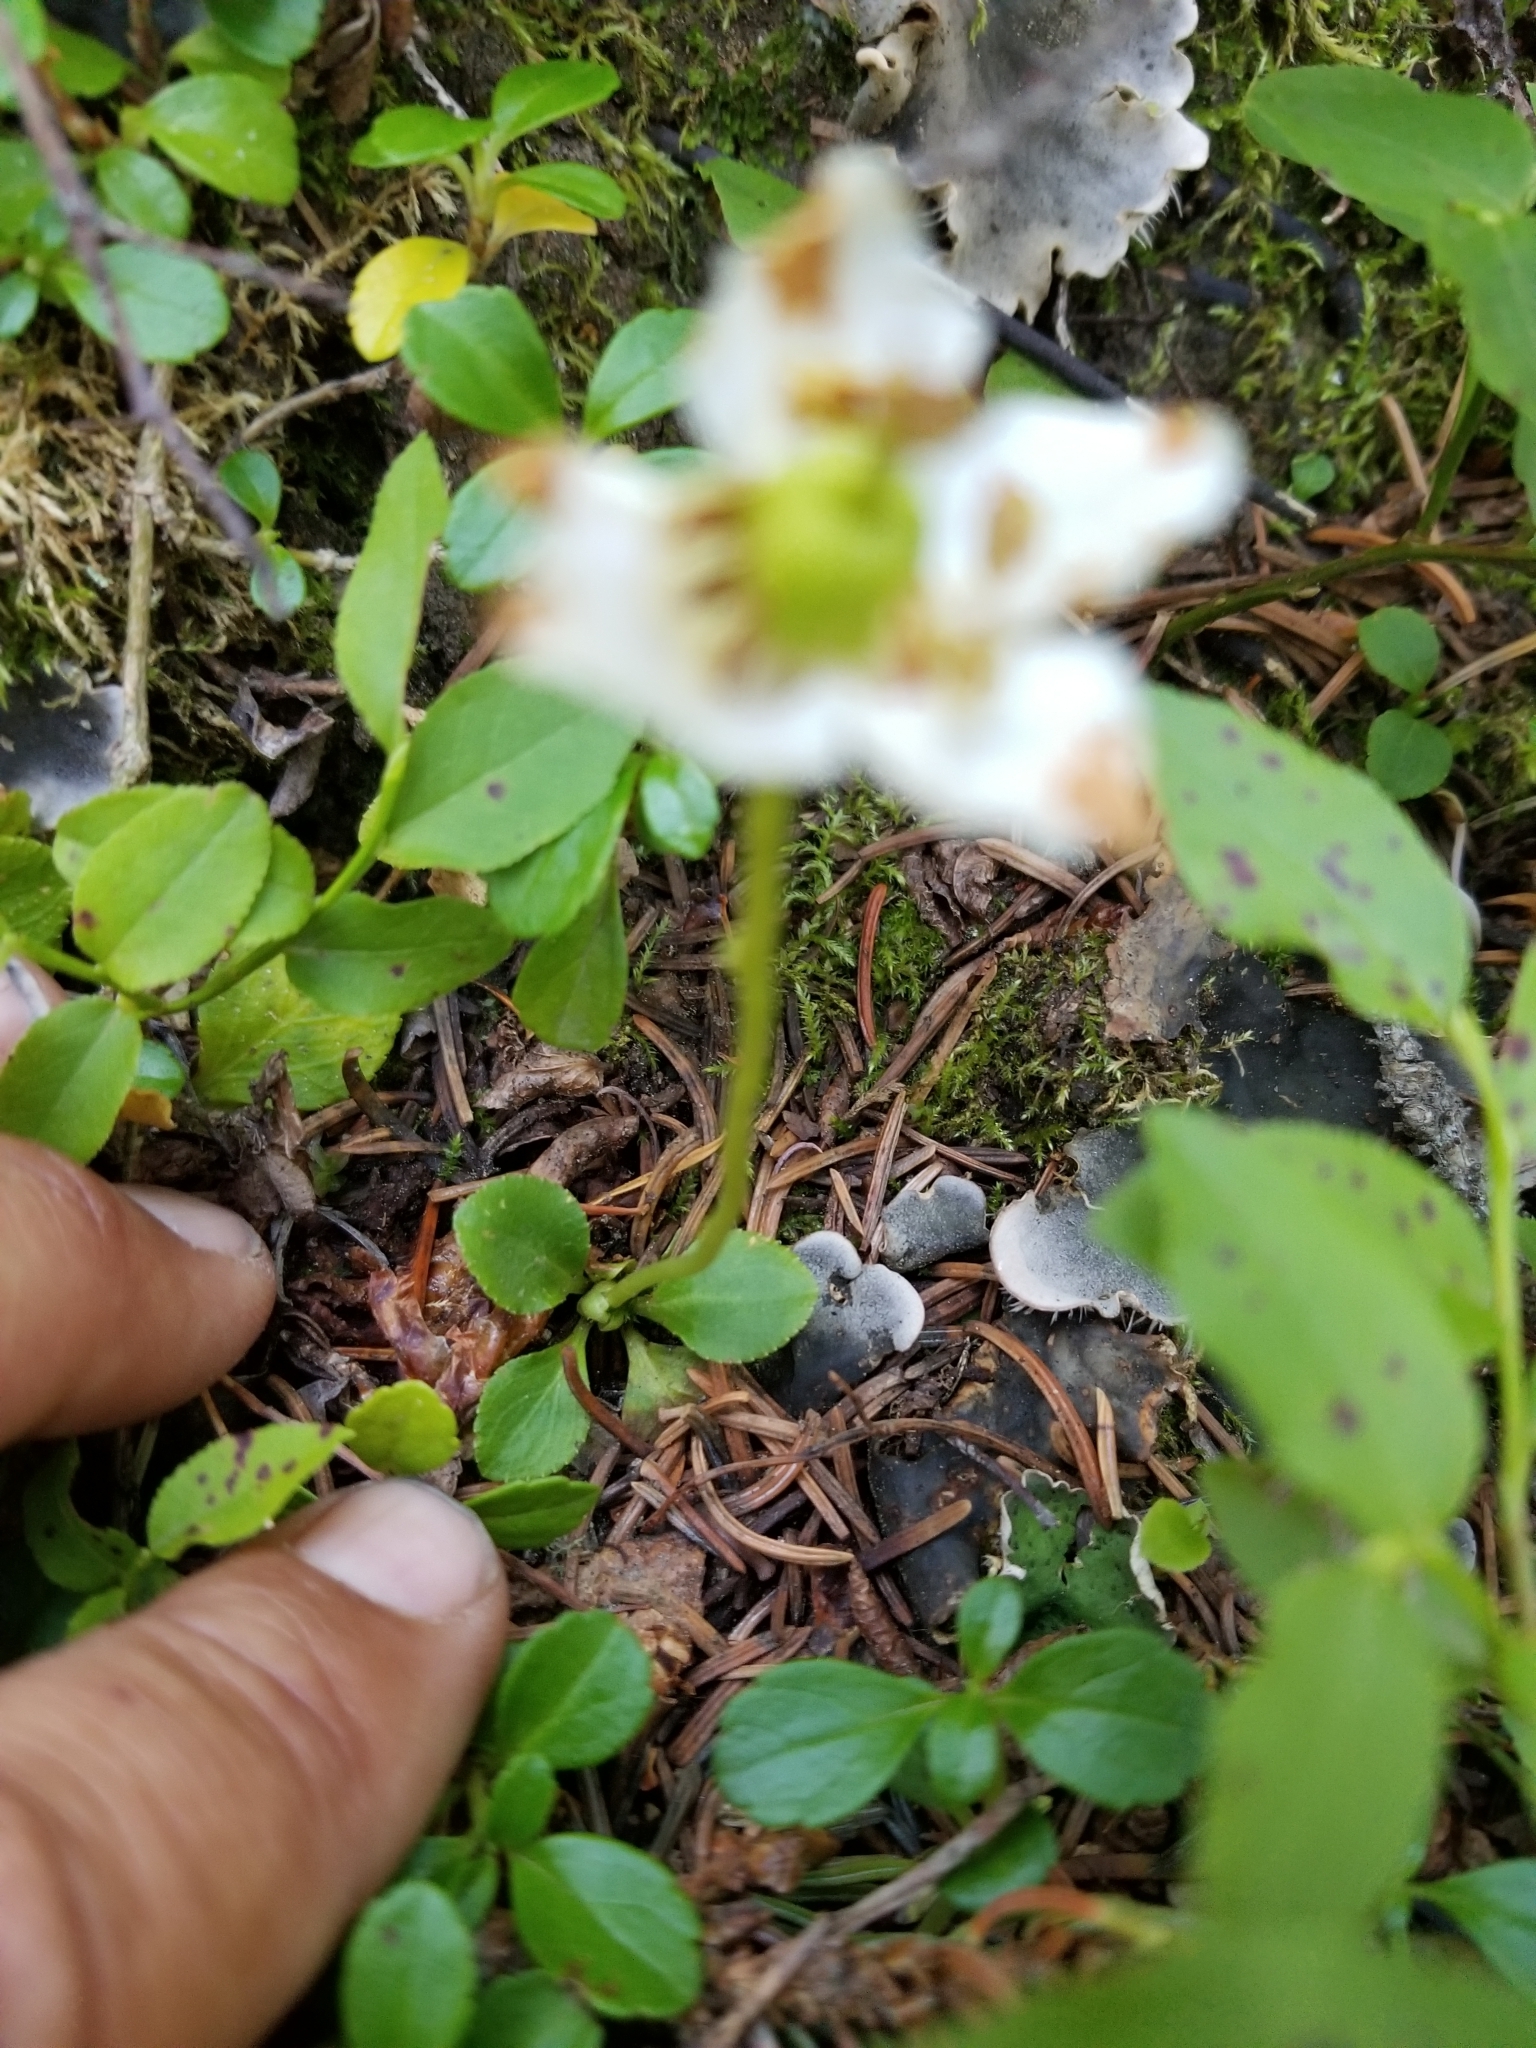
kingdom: Plantae
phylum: Tracheophyta
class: Magnoliopsida
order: Ericales
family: Ericaceae
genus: Moneses
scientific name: Moneses uniflora
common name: One-flowered wintergreen
